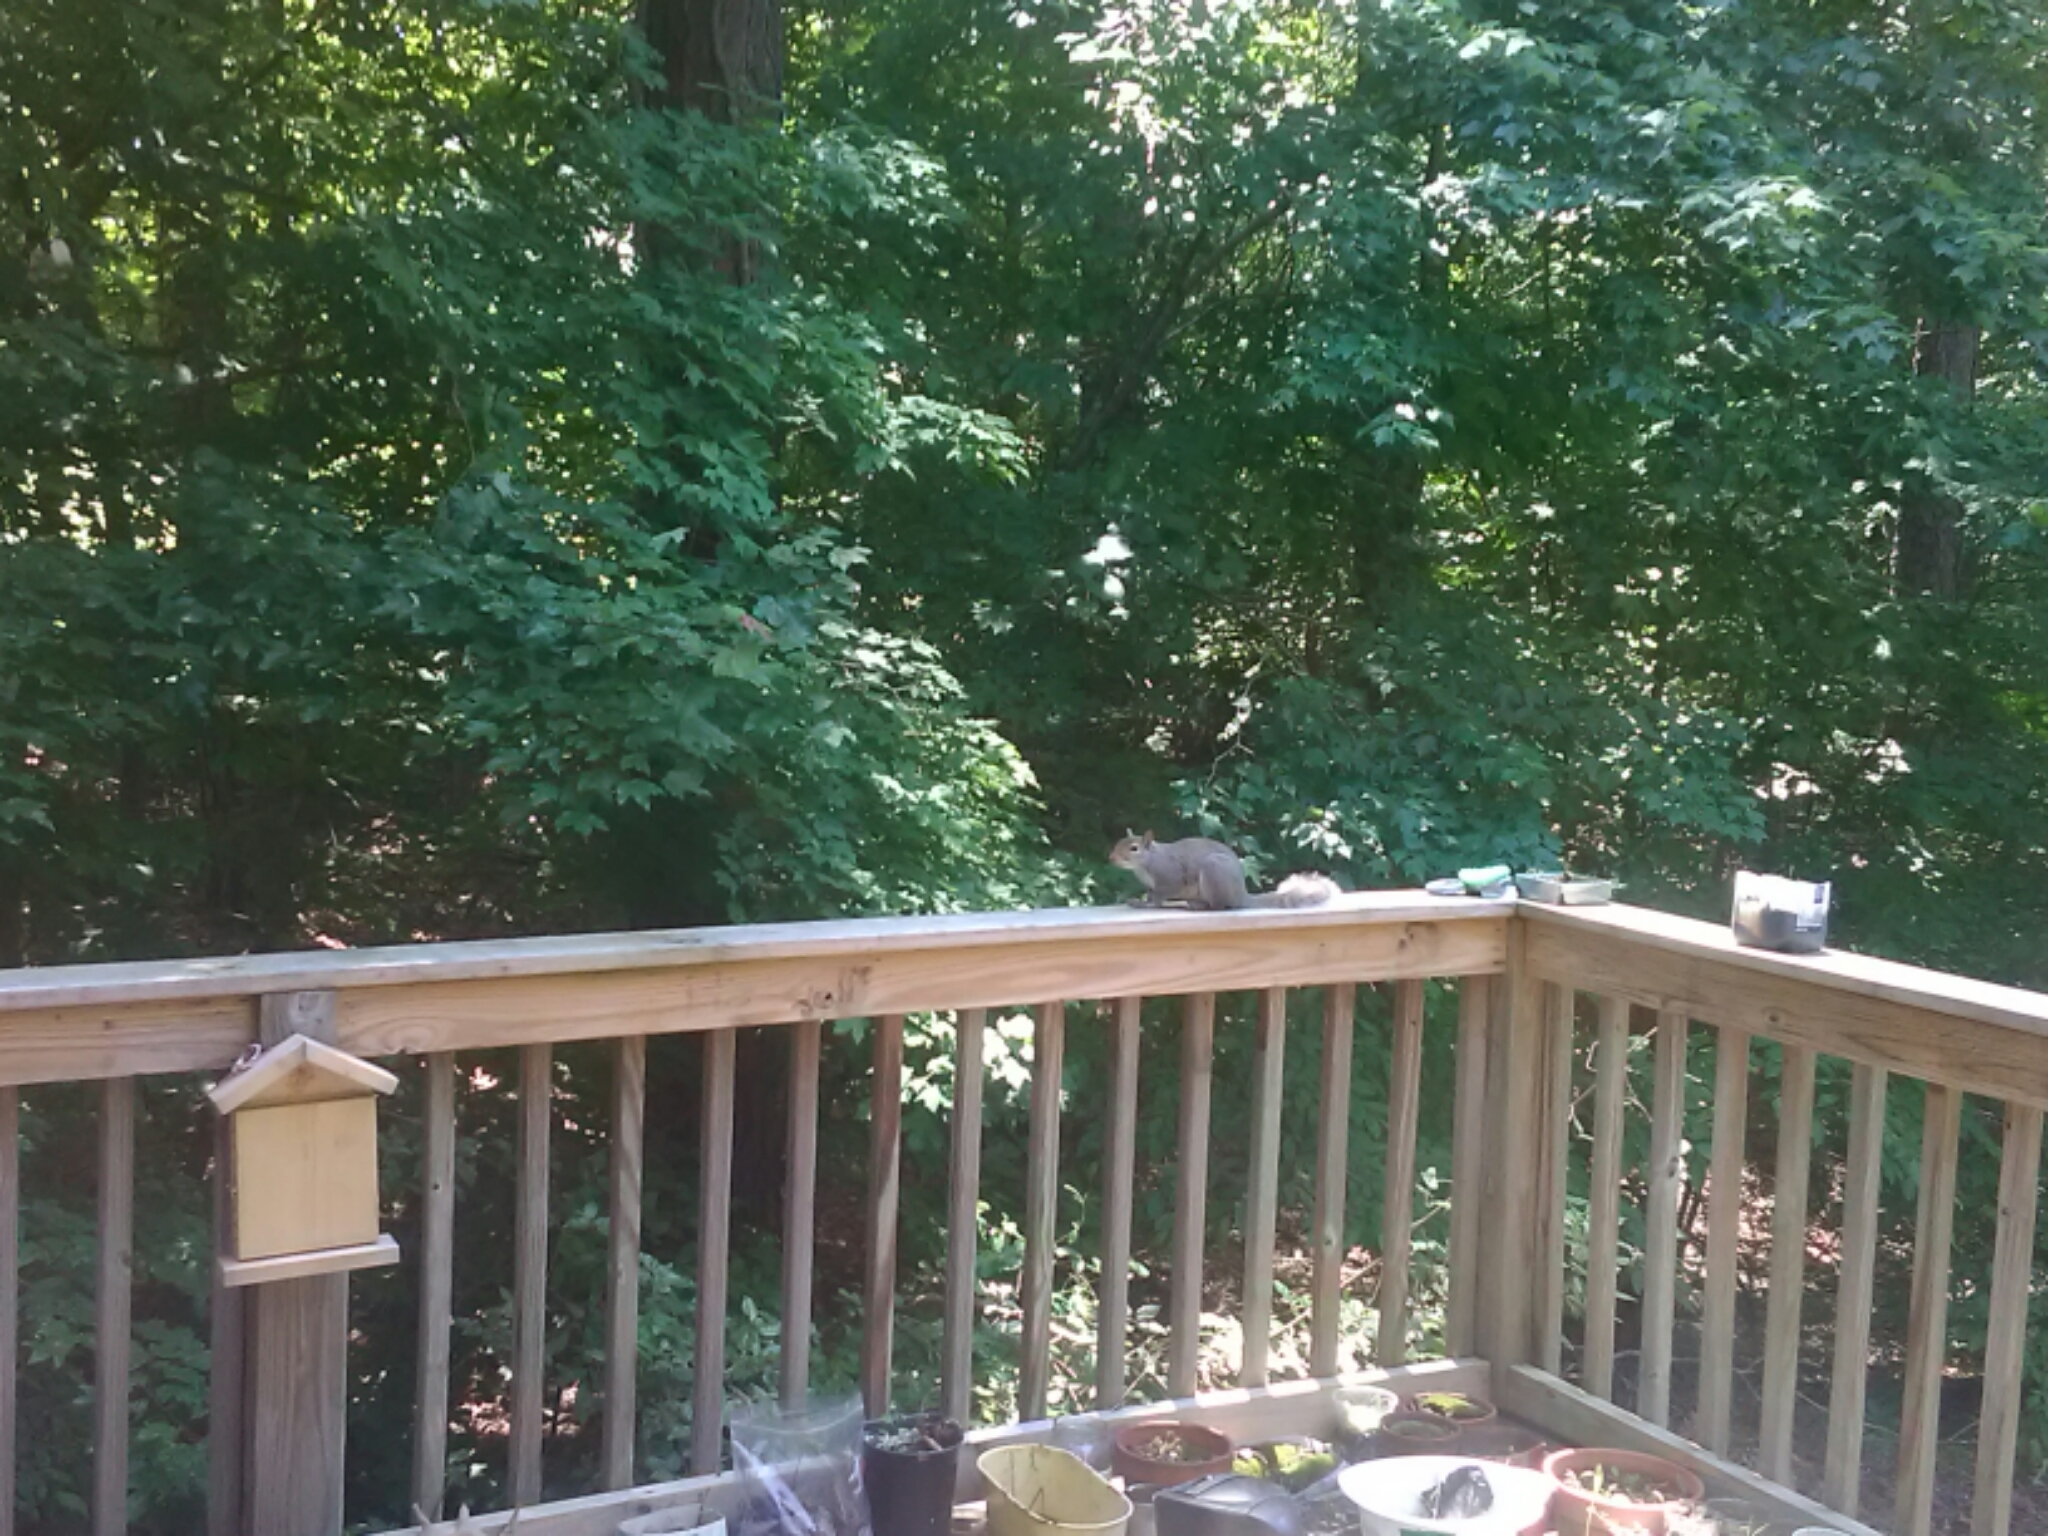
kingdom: Animalia
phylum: Chordata
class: Mammalia
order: Rodentia
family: Sciuridae
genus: Sciurus
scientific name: Sciurus carolinensis
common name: Eastern gray squirrel
